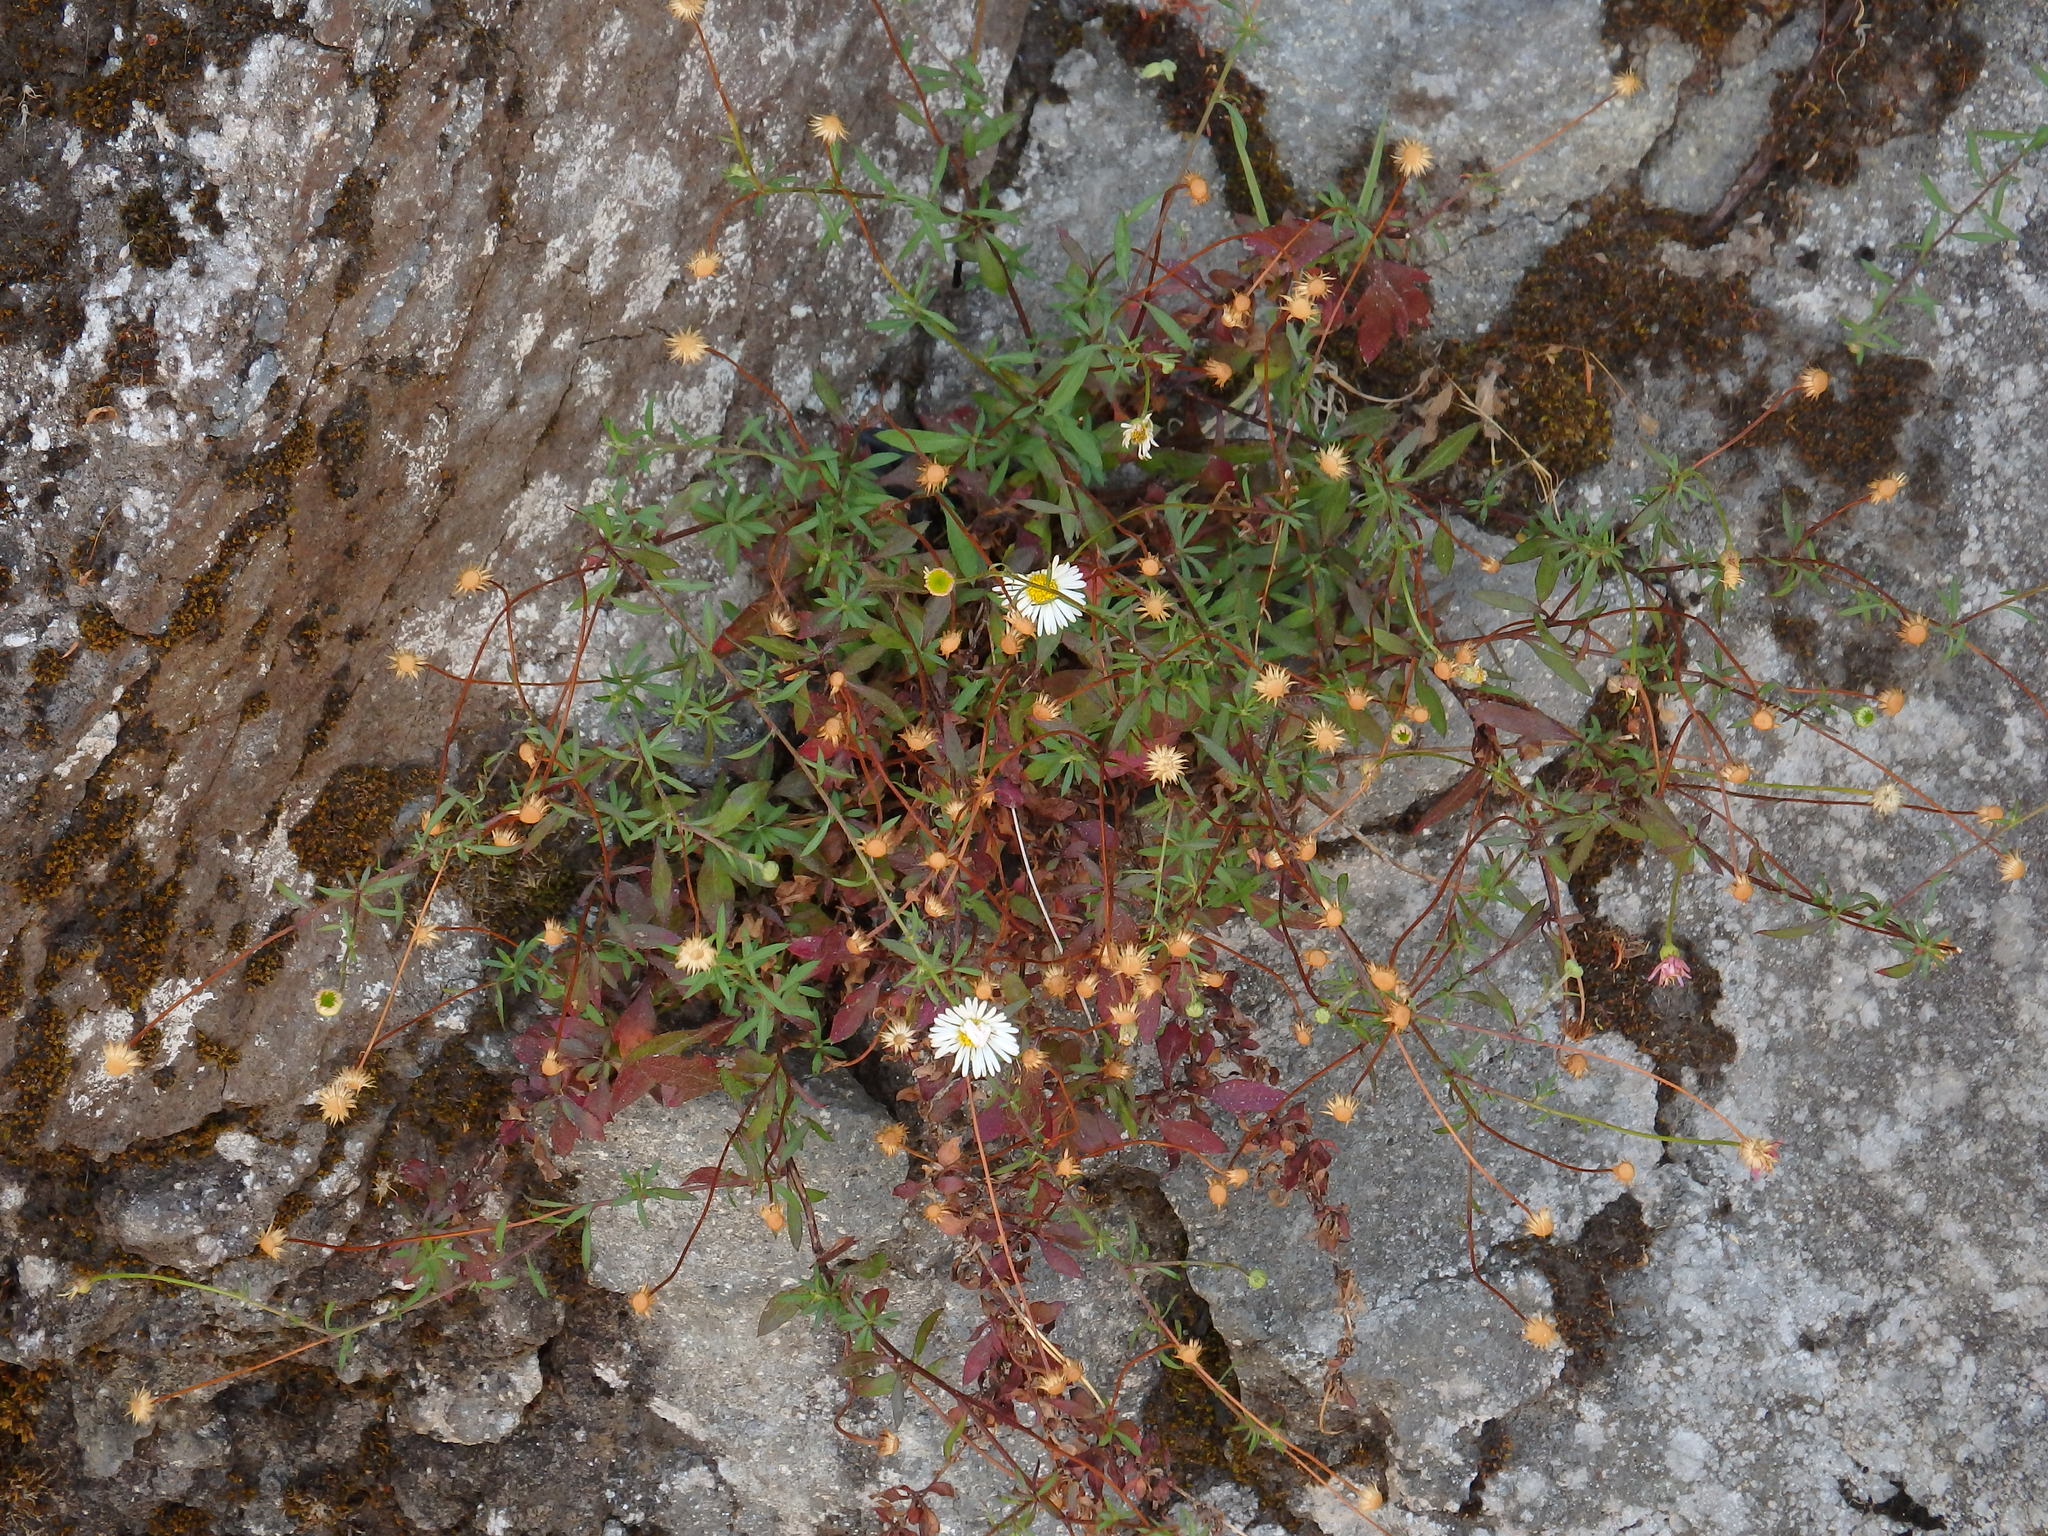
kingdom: Plantae
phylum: Tracheophyta
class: Magnoliopsida
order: Asterales
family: Asteraceae
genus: Erigeron
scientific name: Erigeron karvinskianus
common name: Mexican fleabane
